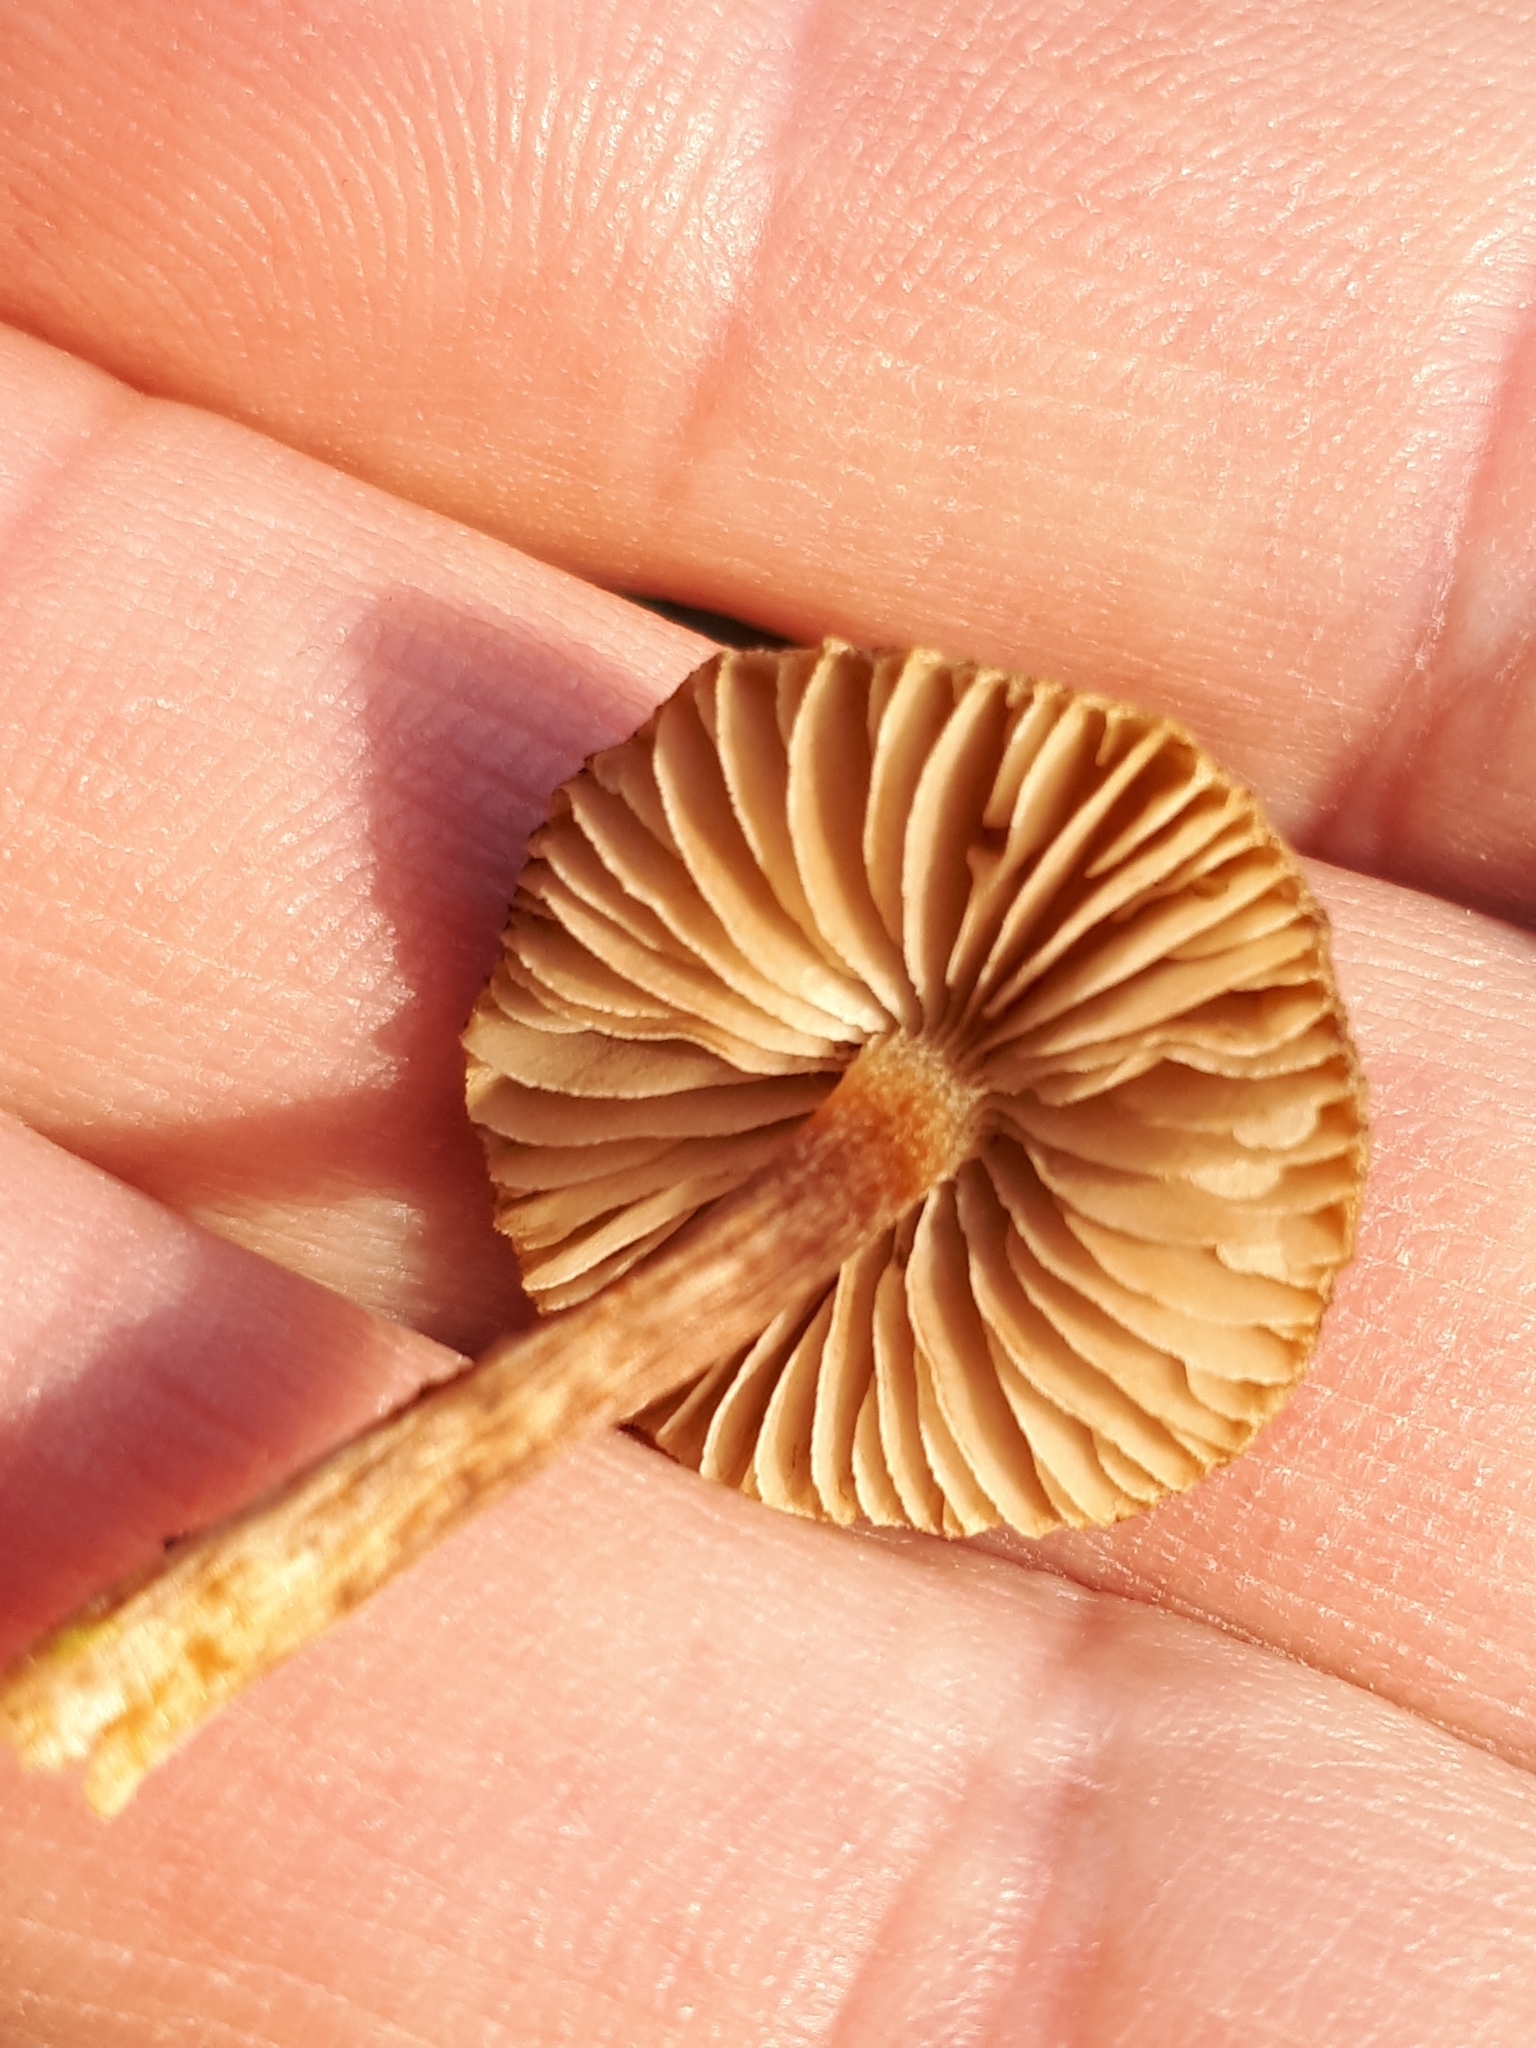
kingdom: Fungi
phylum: Basidiomycota
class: Agaricomycetes
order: Agaricales
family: Inocybaceae
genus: Inocybe
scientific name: Inocybe
